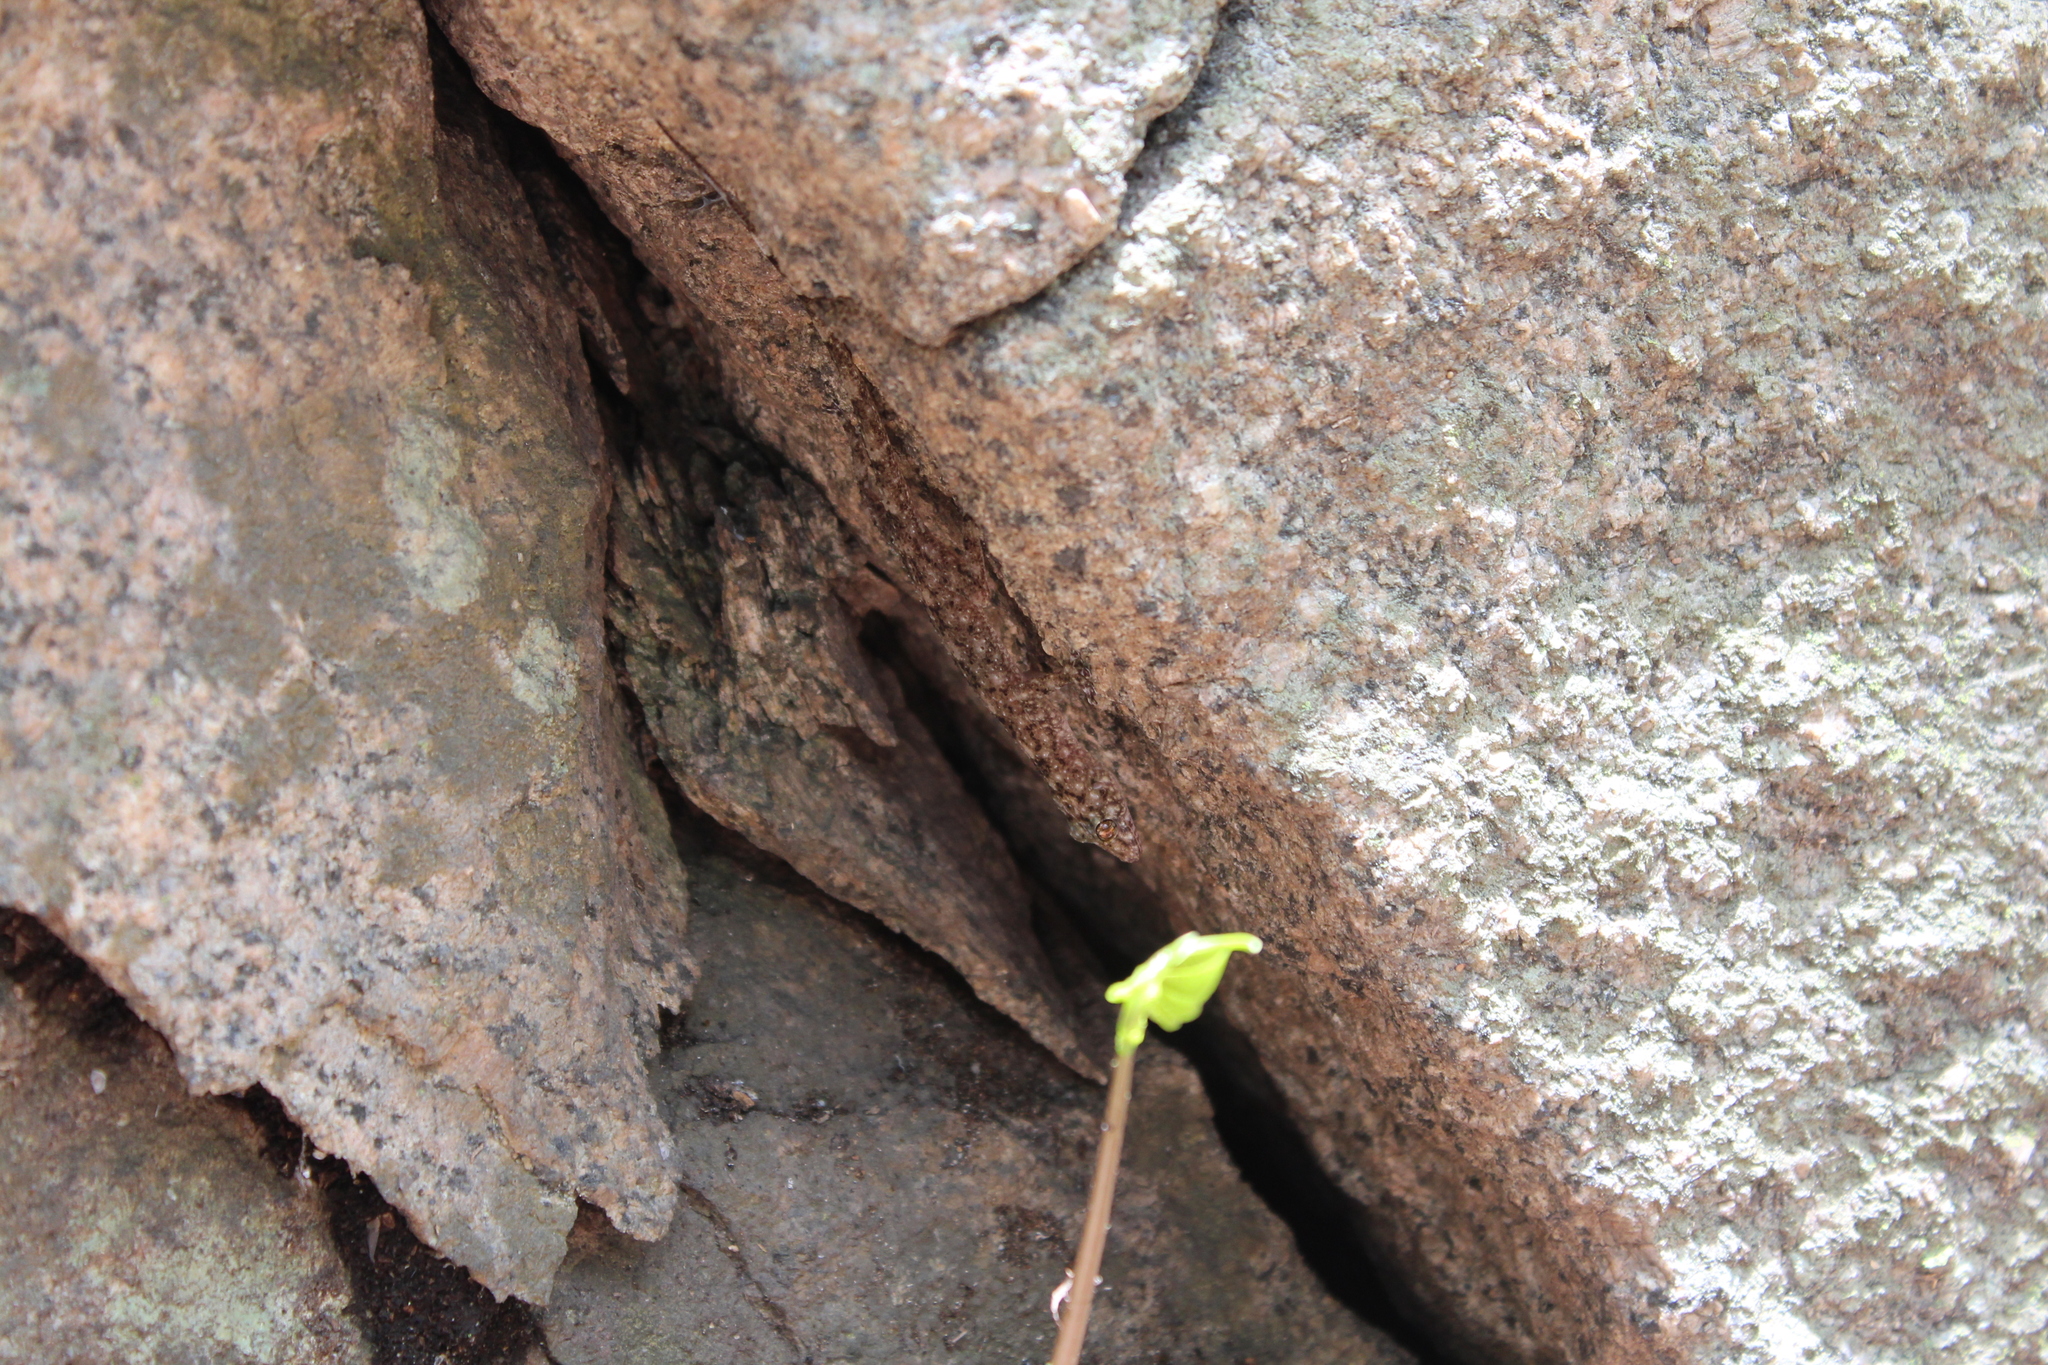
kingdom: Animalia
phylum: Chordata
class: Squamata
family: Gekkonidae
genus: Paragehyra
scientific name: Paragehyra felicitae
